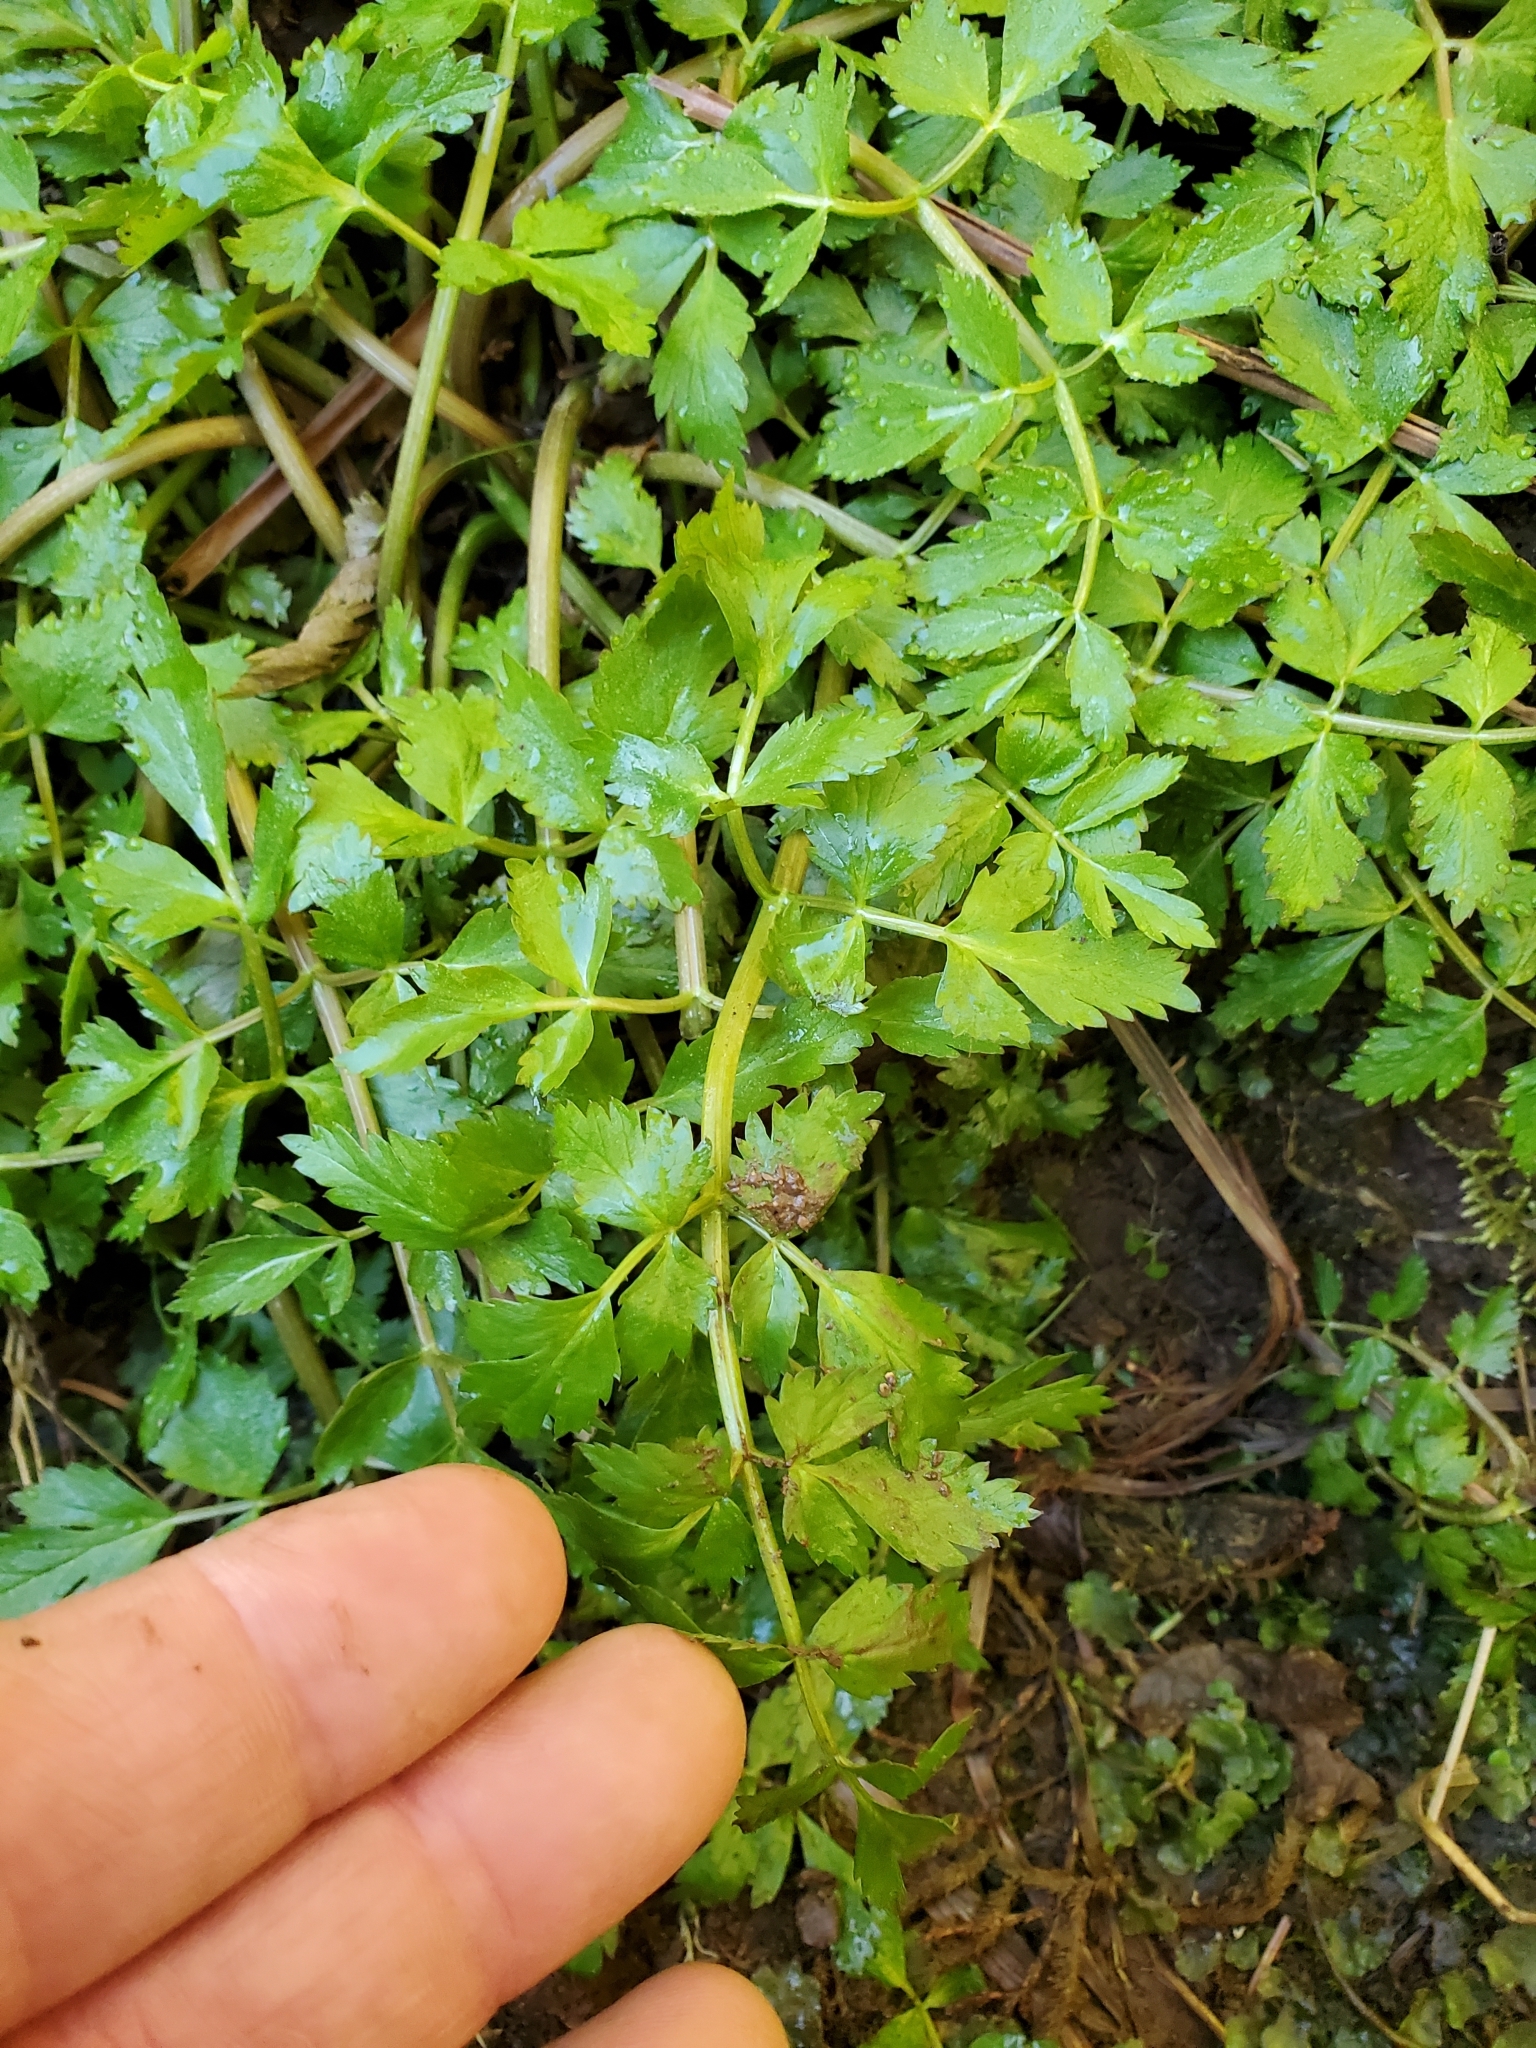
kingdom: Plantae
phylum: Tracheophyta
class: Magnoliopsida
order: Apiales
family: Apiaceae
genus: Oenanthe
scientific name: Oenanthe sarmentosa
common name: American water-parsley
